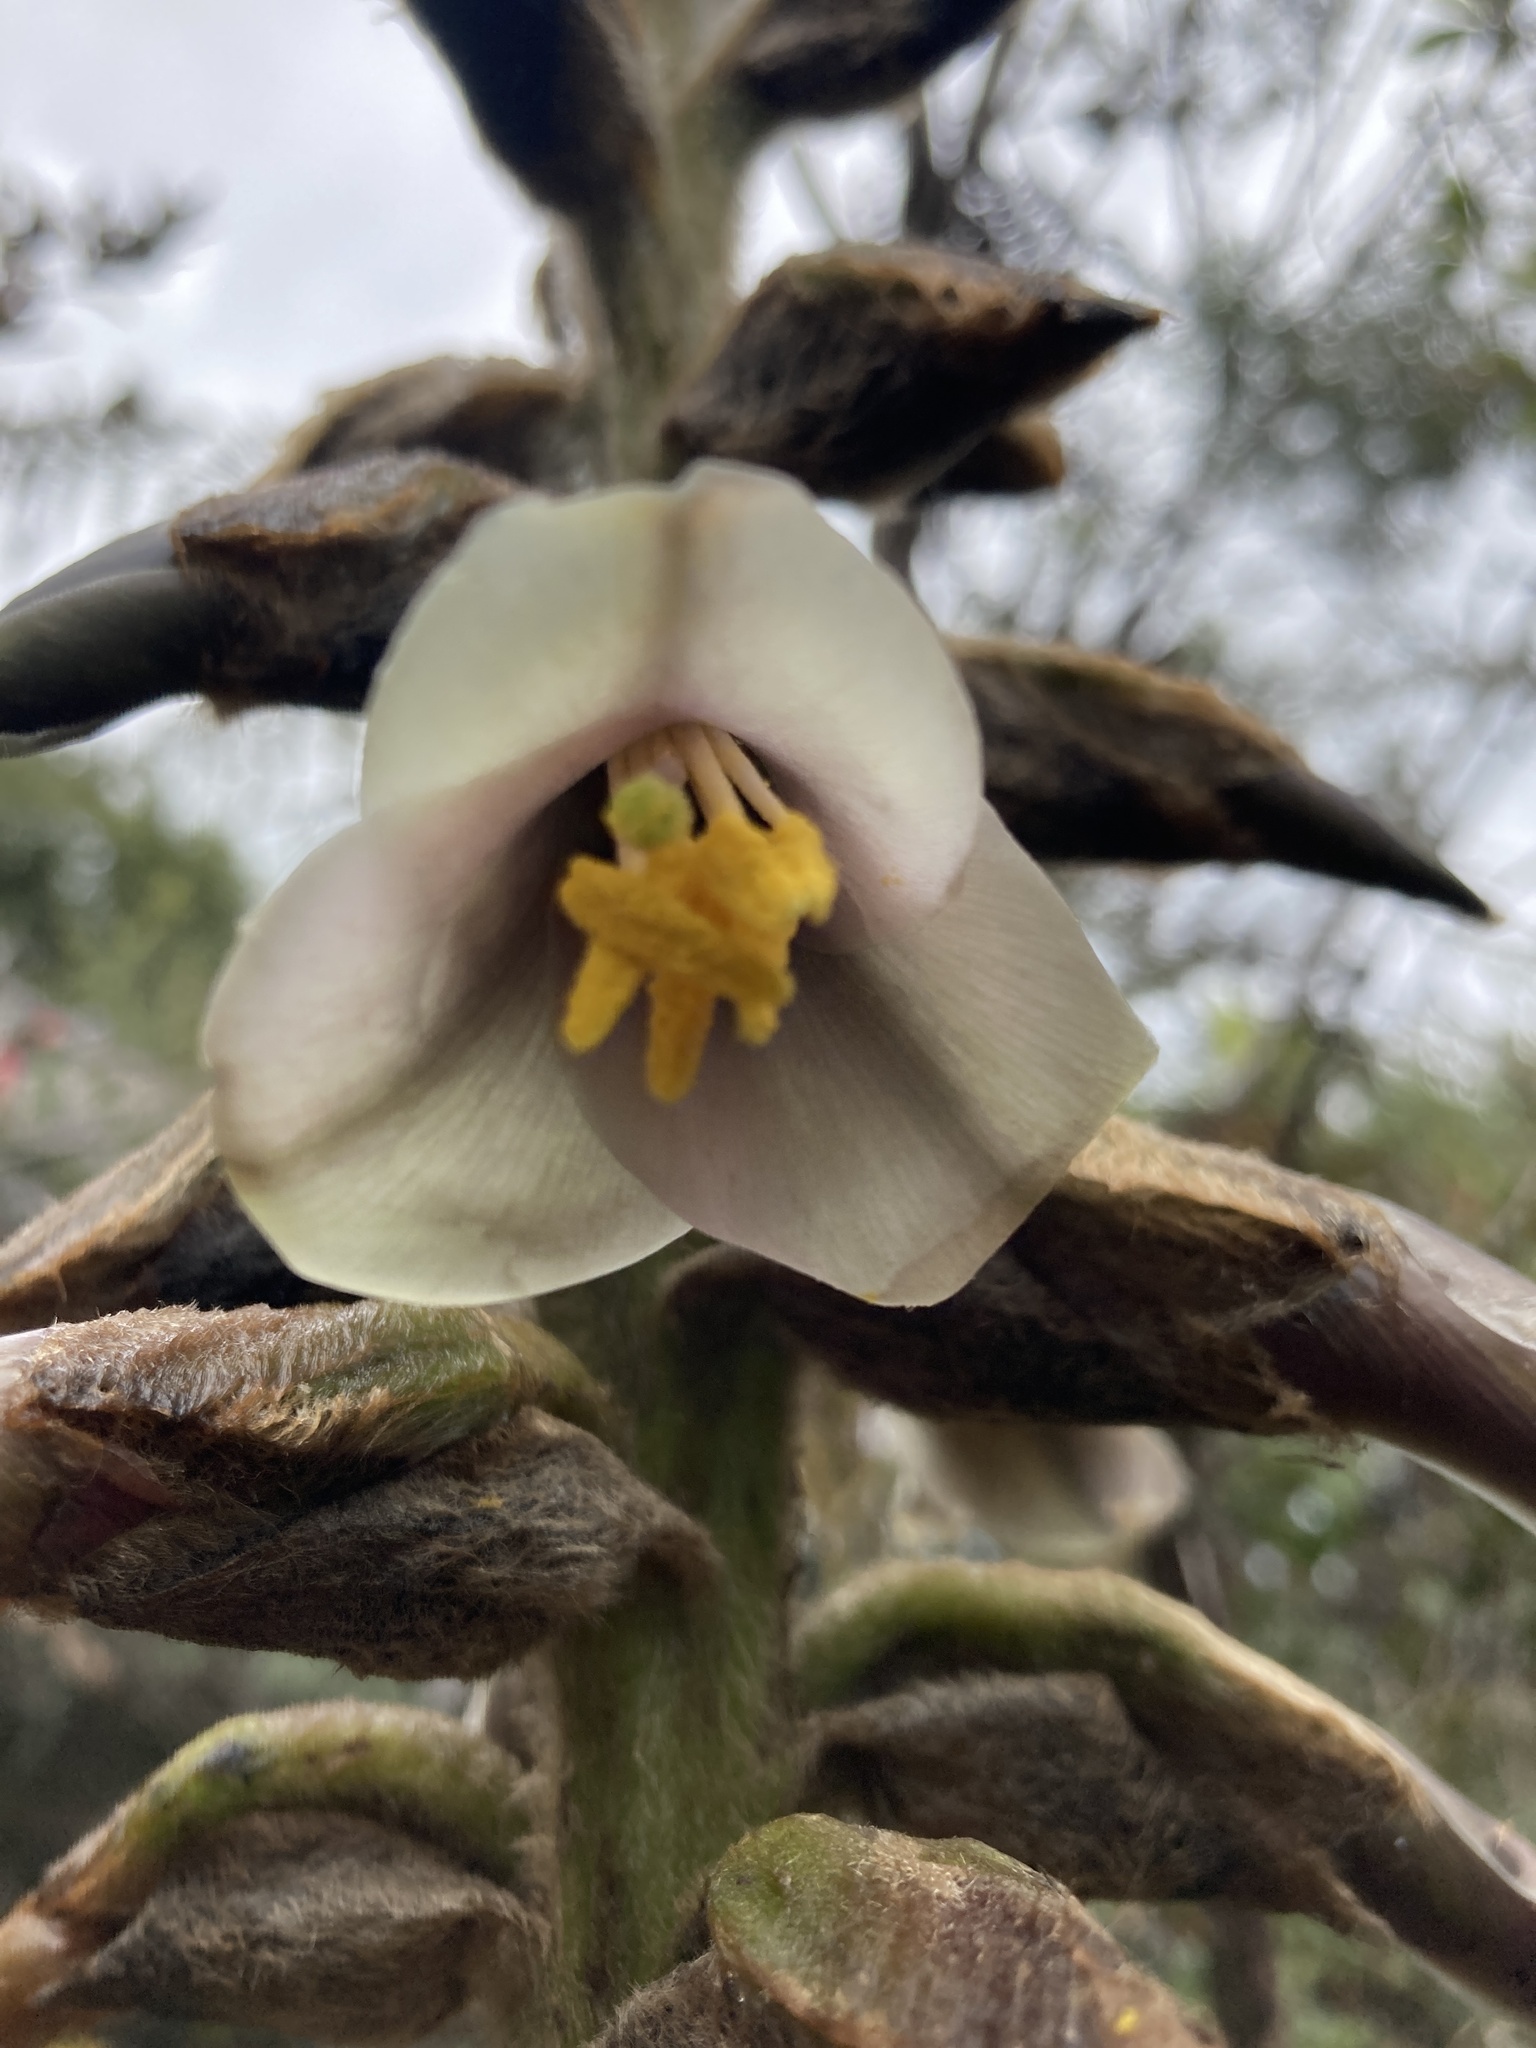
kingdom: Plantae
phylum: Tracheophyta
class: Liliopsida
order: Poales
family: Bromeliaceae
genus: Puya
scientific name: Puya nitida
